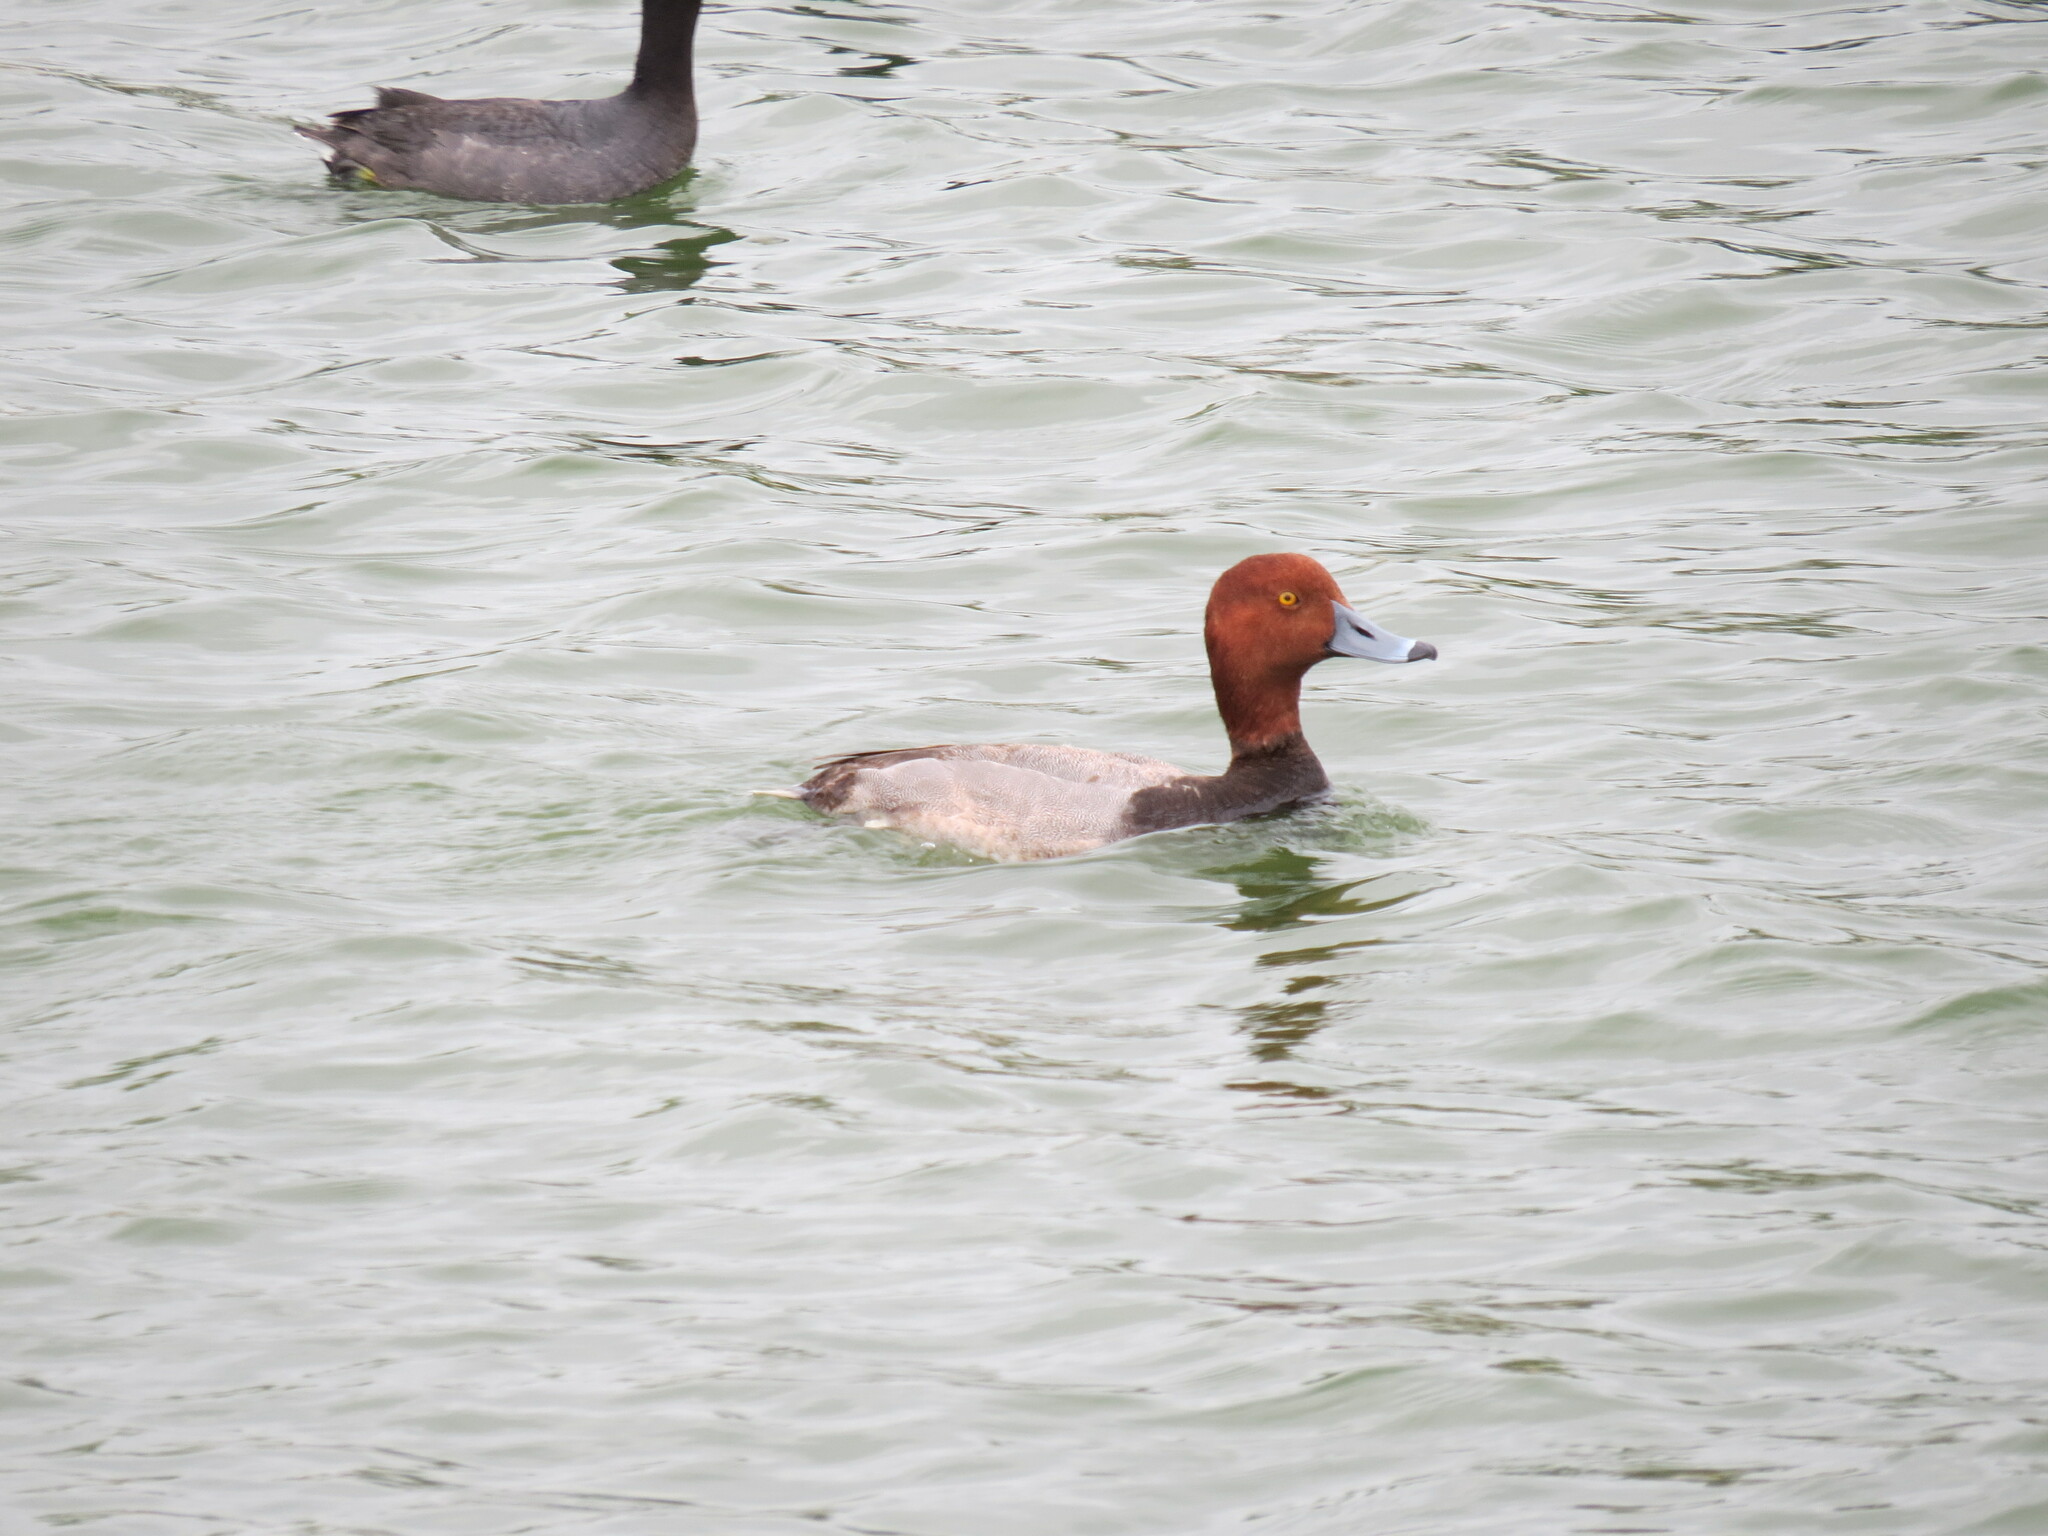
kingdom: Animalia
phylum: Chordata
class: Aves
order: Anseriformes
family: Anatidae
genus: Aythya
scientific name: Aythya americana
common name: Redhead
